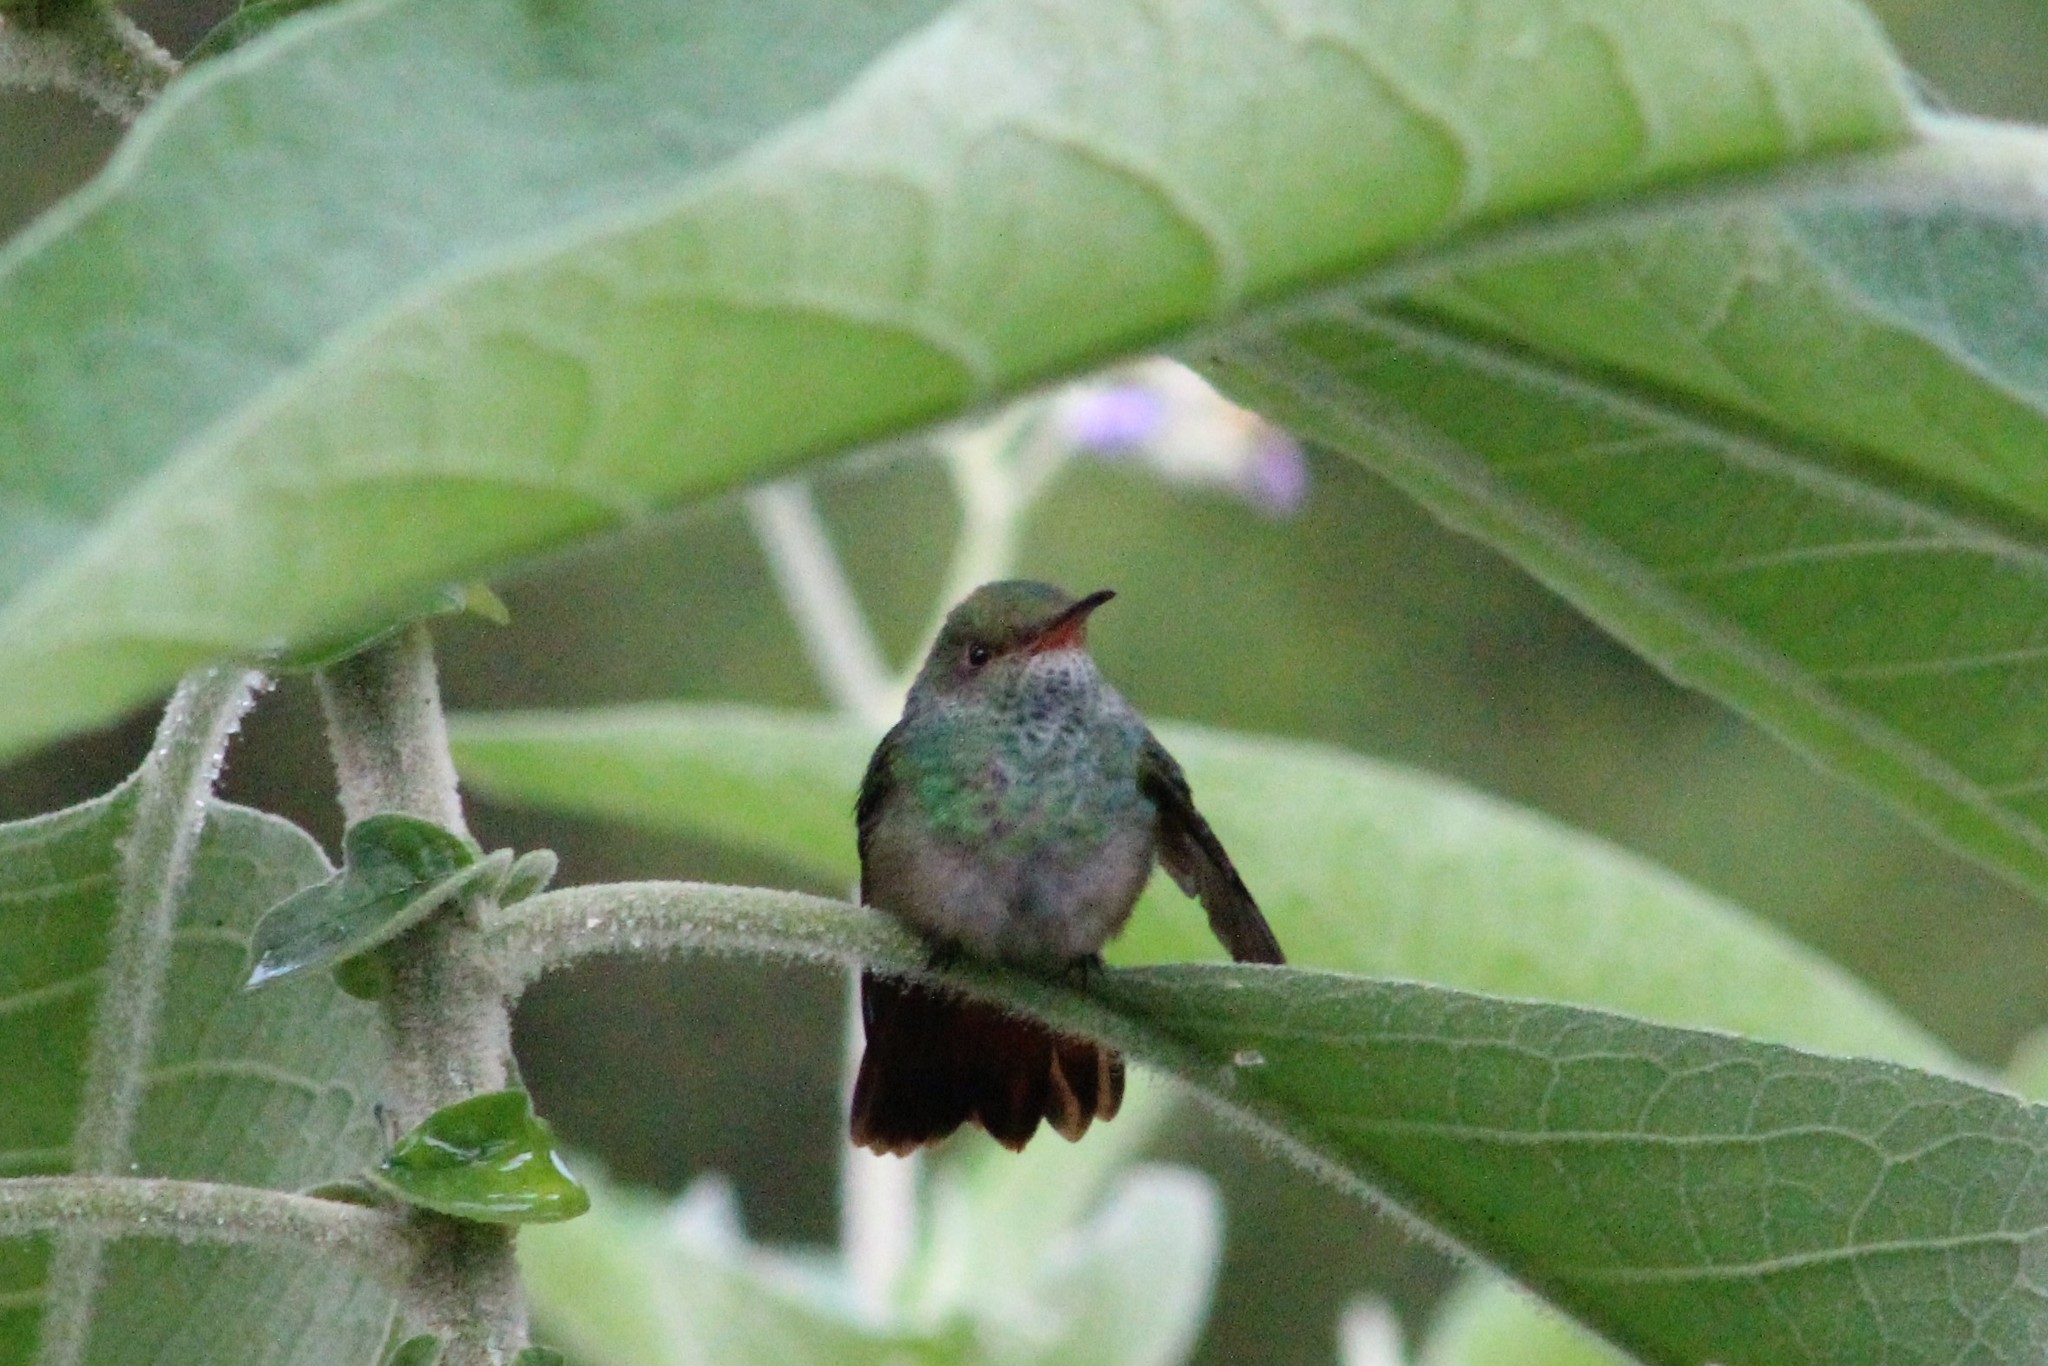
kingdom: Animalia
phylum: Chordata
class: Aves
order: Apodiformes
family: Trochilidae
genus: Amazilia
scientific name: Amazilia tzacatl
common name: Rufous-tailed hummingbird
